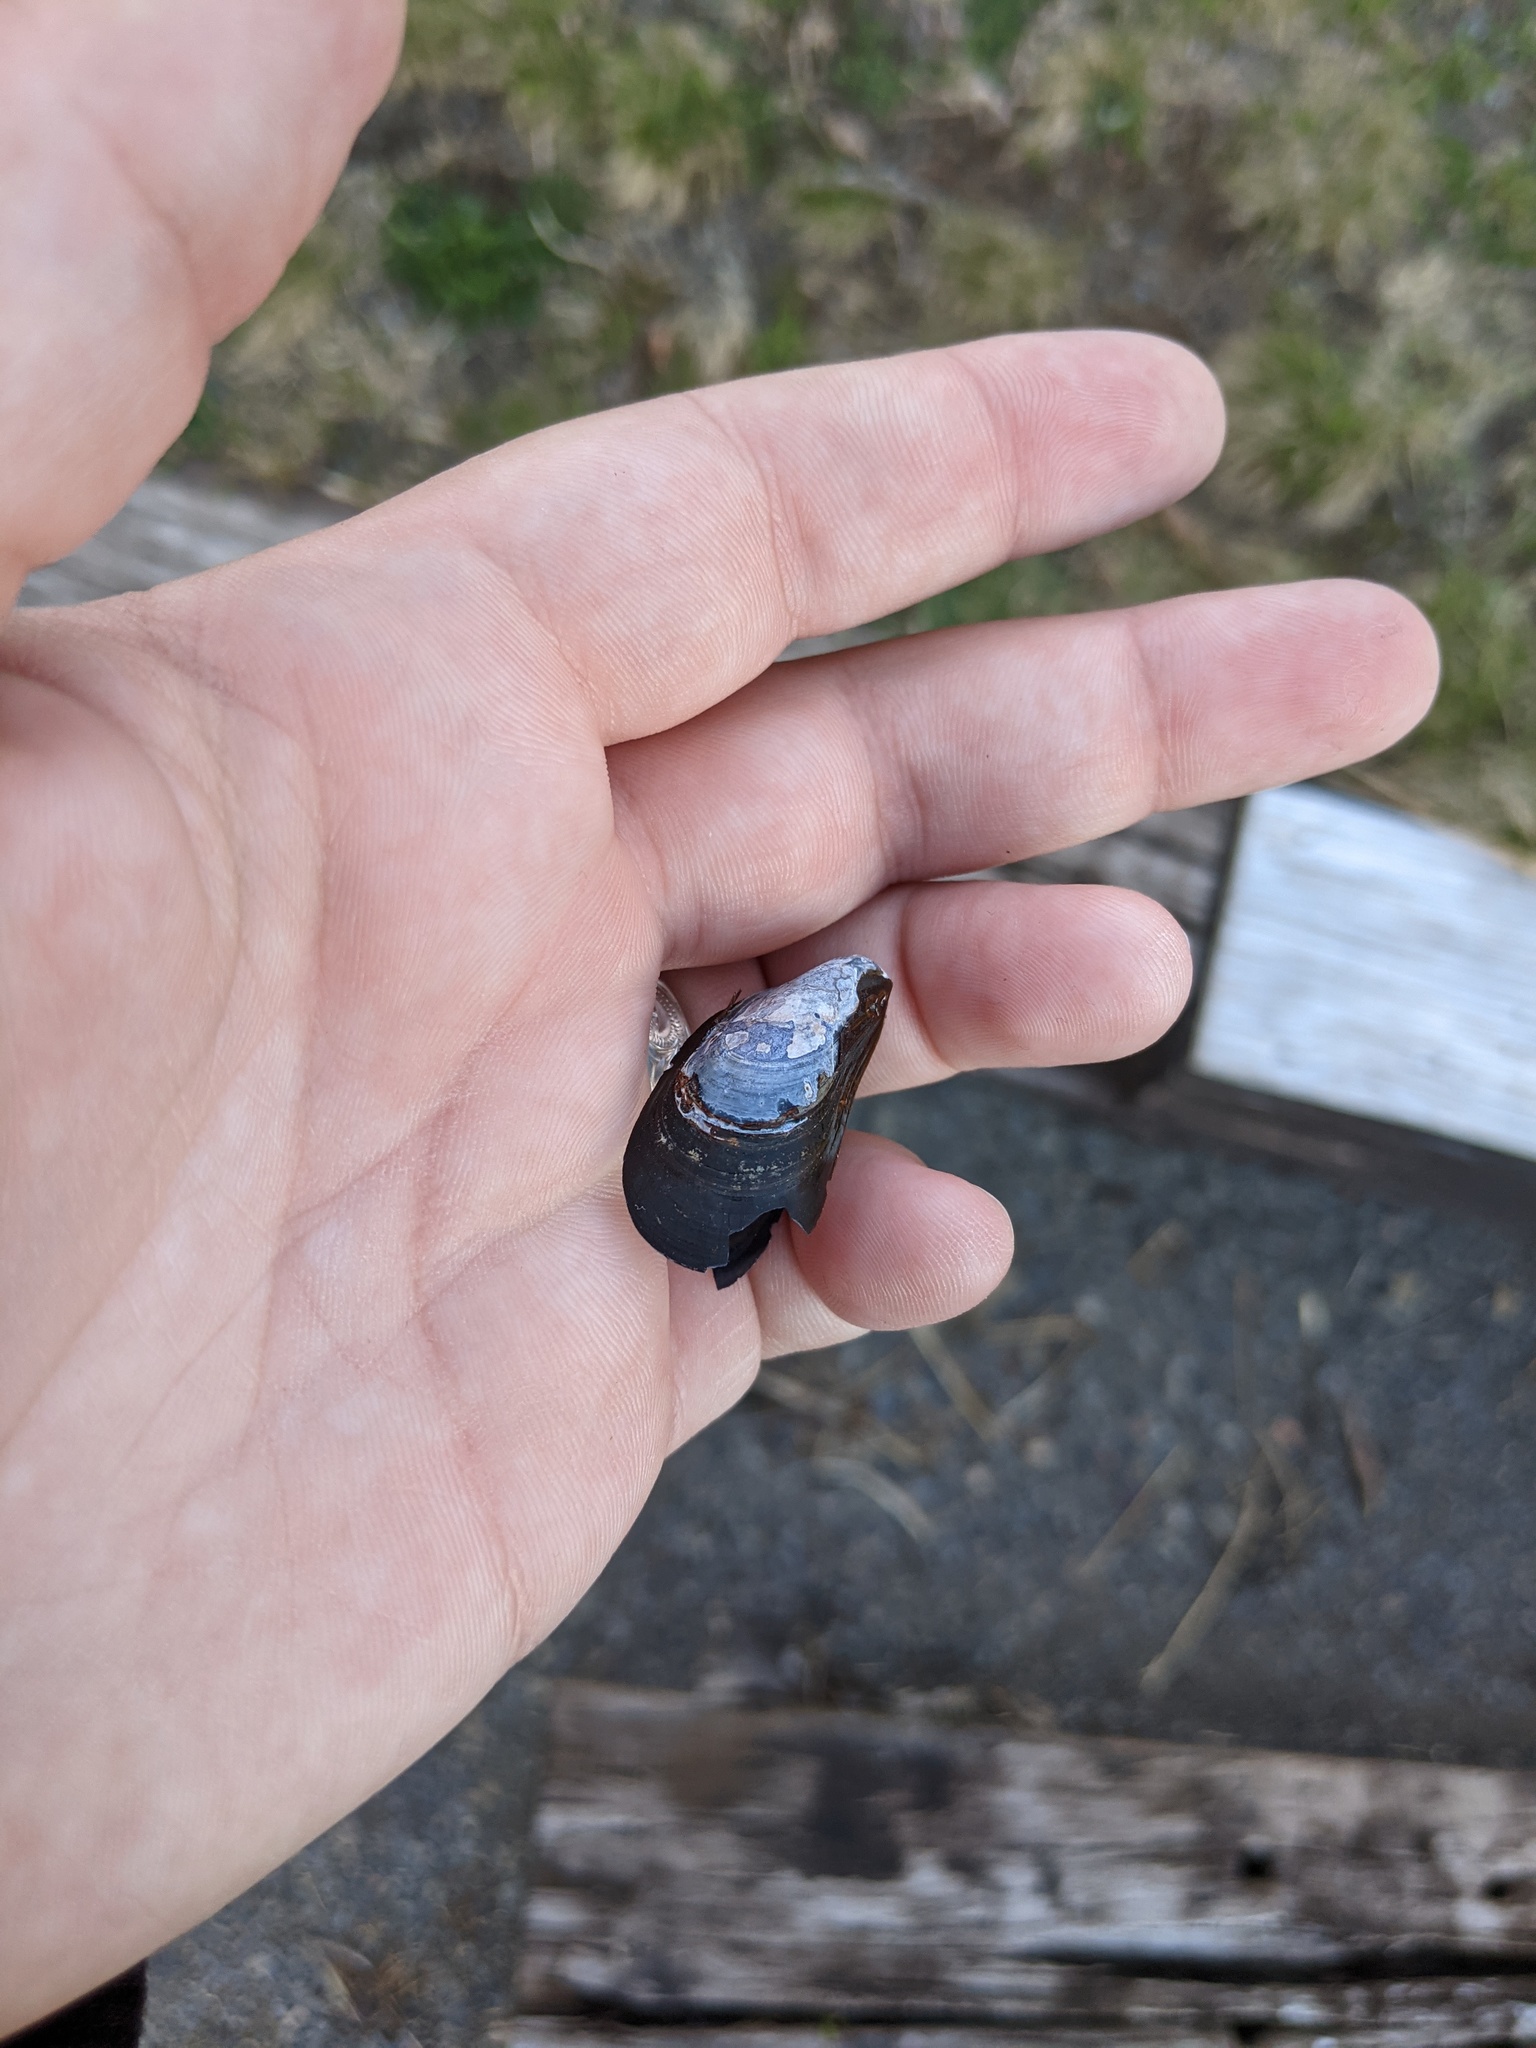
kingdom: Animalia
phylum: Mollusca
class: Bivalvia
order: Mytilida
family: Mytilidae
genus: Mytilus
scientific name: Mytilus edulis
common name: Blue mussel
